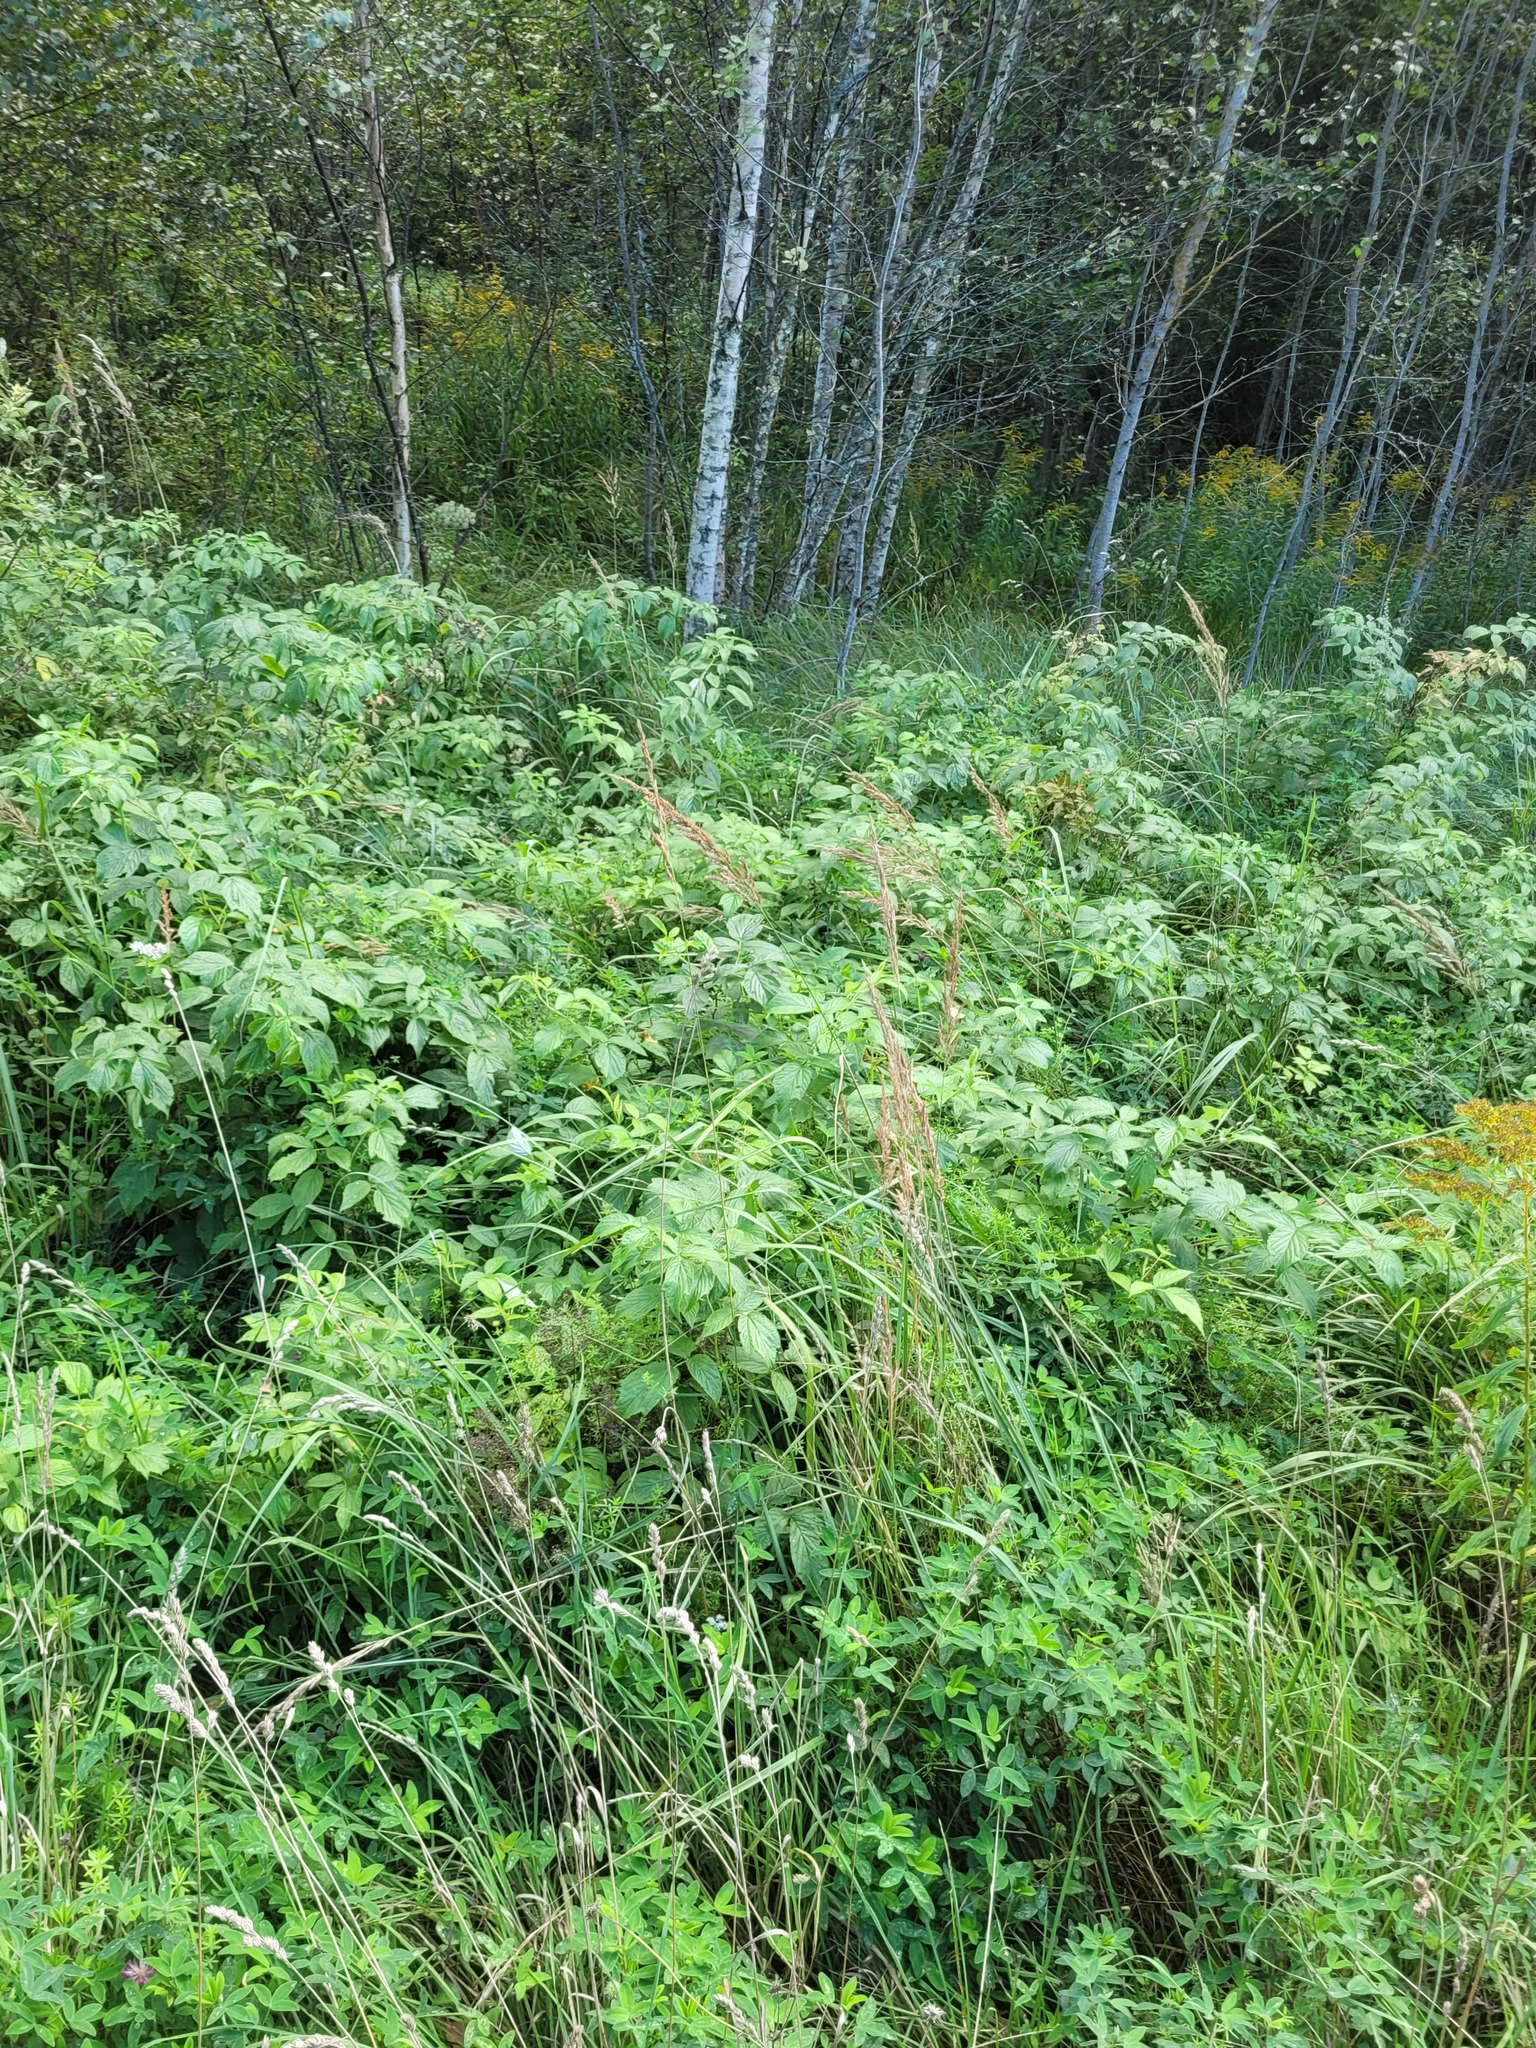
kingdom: Plantae
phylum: Tracheophyta
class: Magnoliopsida
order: Rosales
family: Rosaceae
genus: Rubus
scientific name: Rubus idaeus
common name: Raspberry
